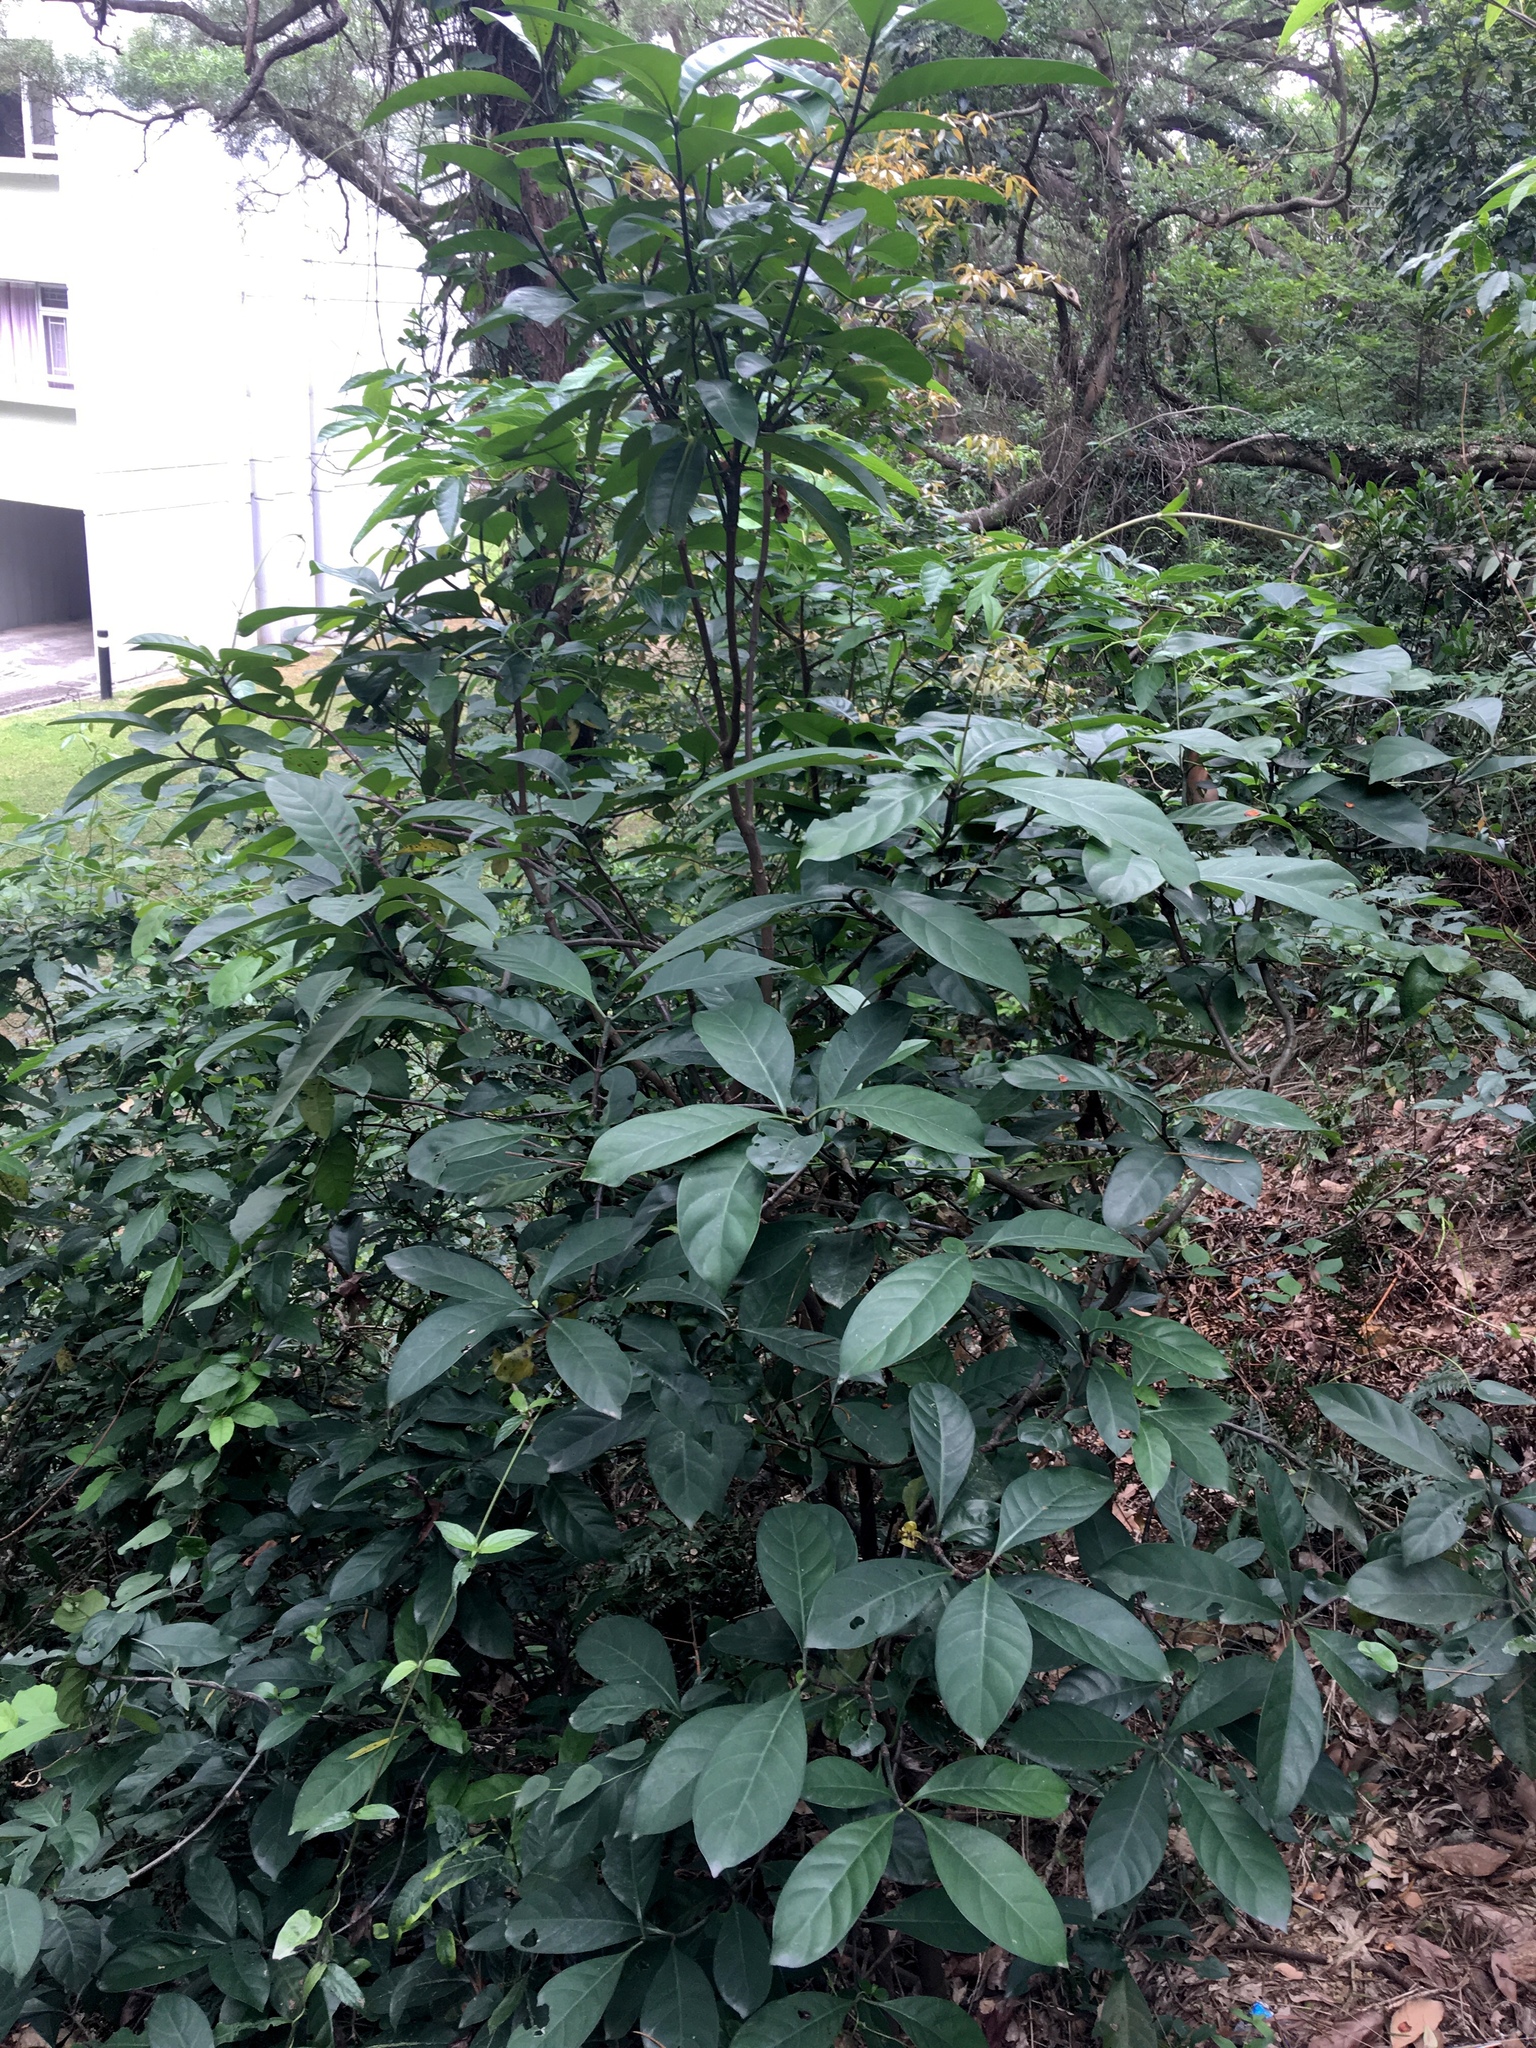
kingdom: Plantae
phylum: Tracheophyta
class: Magnoliopsida
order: Gentianales
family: Rubiaceae
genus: Psychotria
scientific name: Psychotria asiatica
